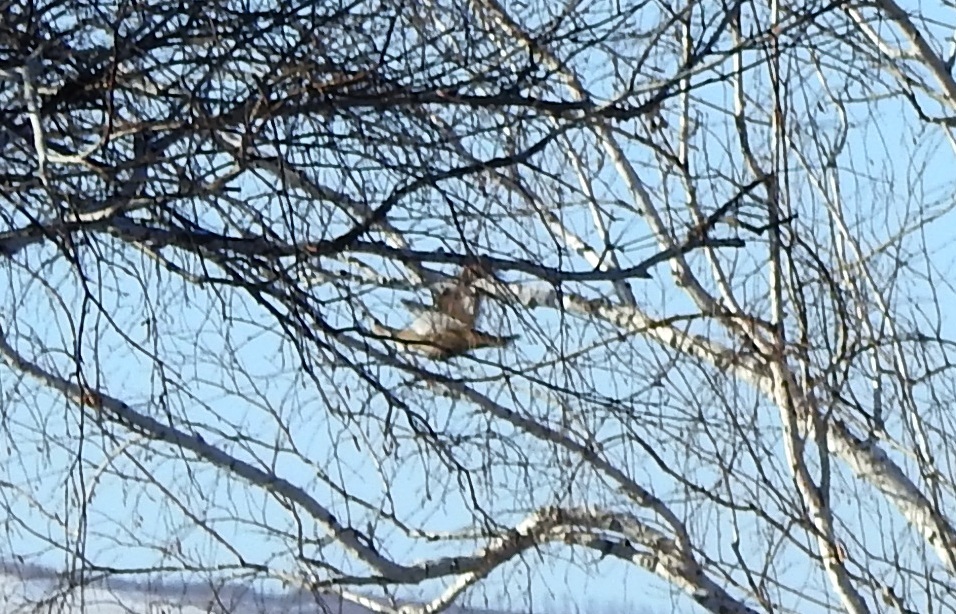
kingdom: Animalia
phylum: Chordata
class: Aves
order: Galliformes
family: Phasianidae
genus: Lyrurus
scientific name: Lyrurus tetrix
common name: Black grouse
